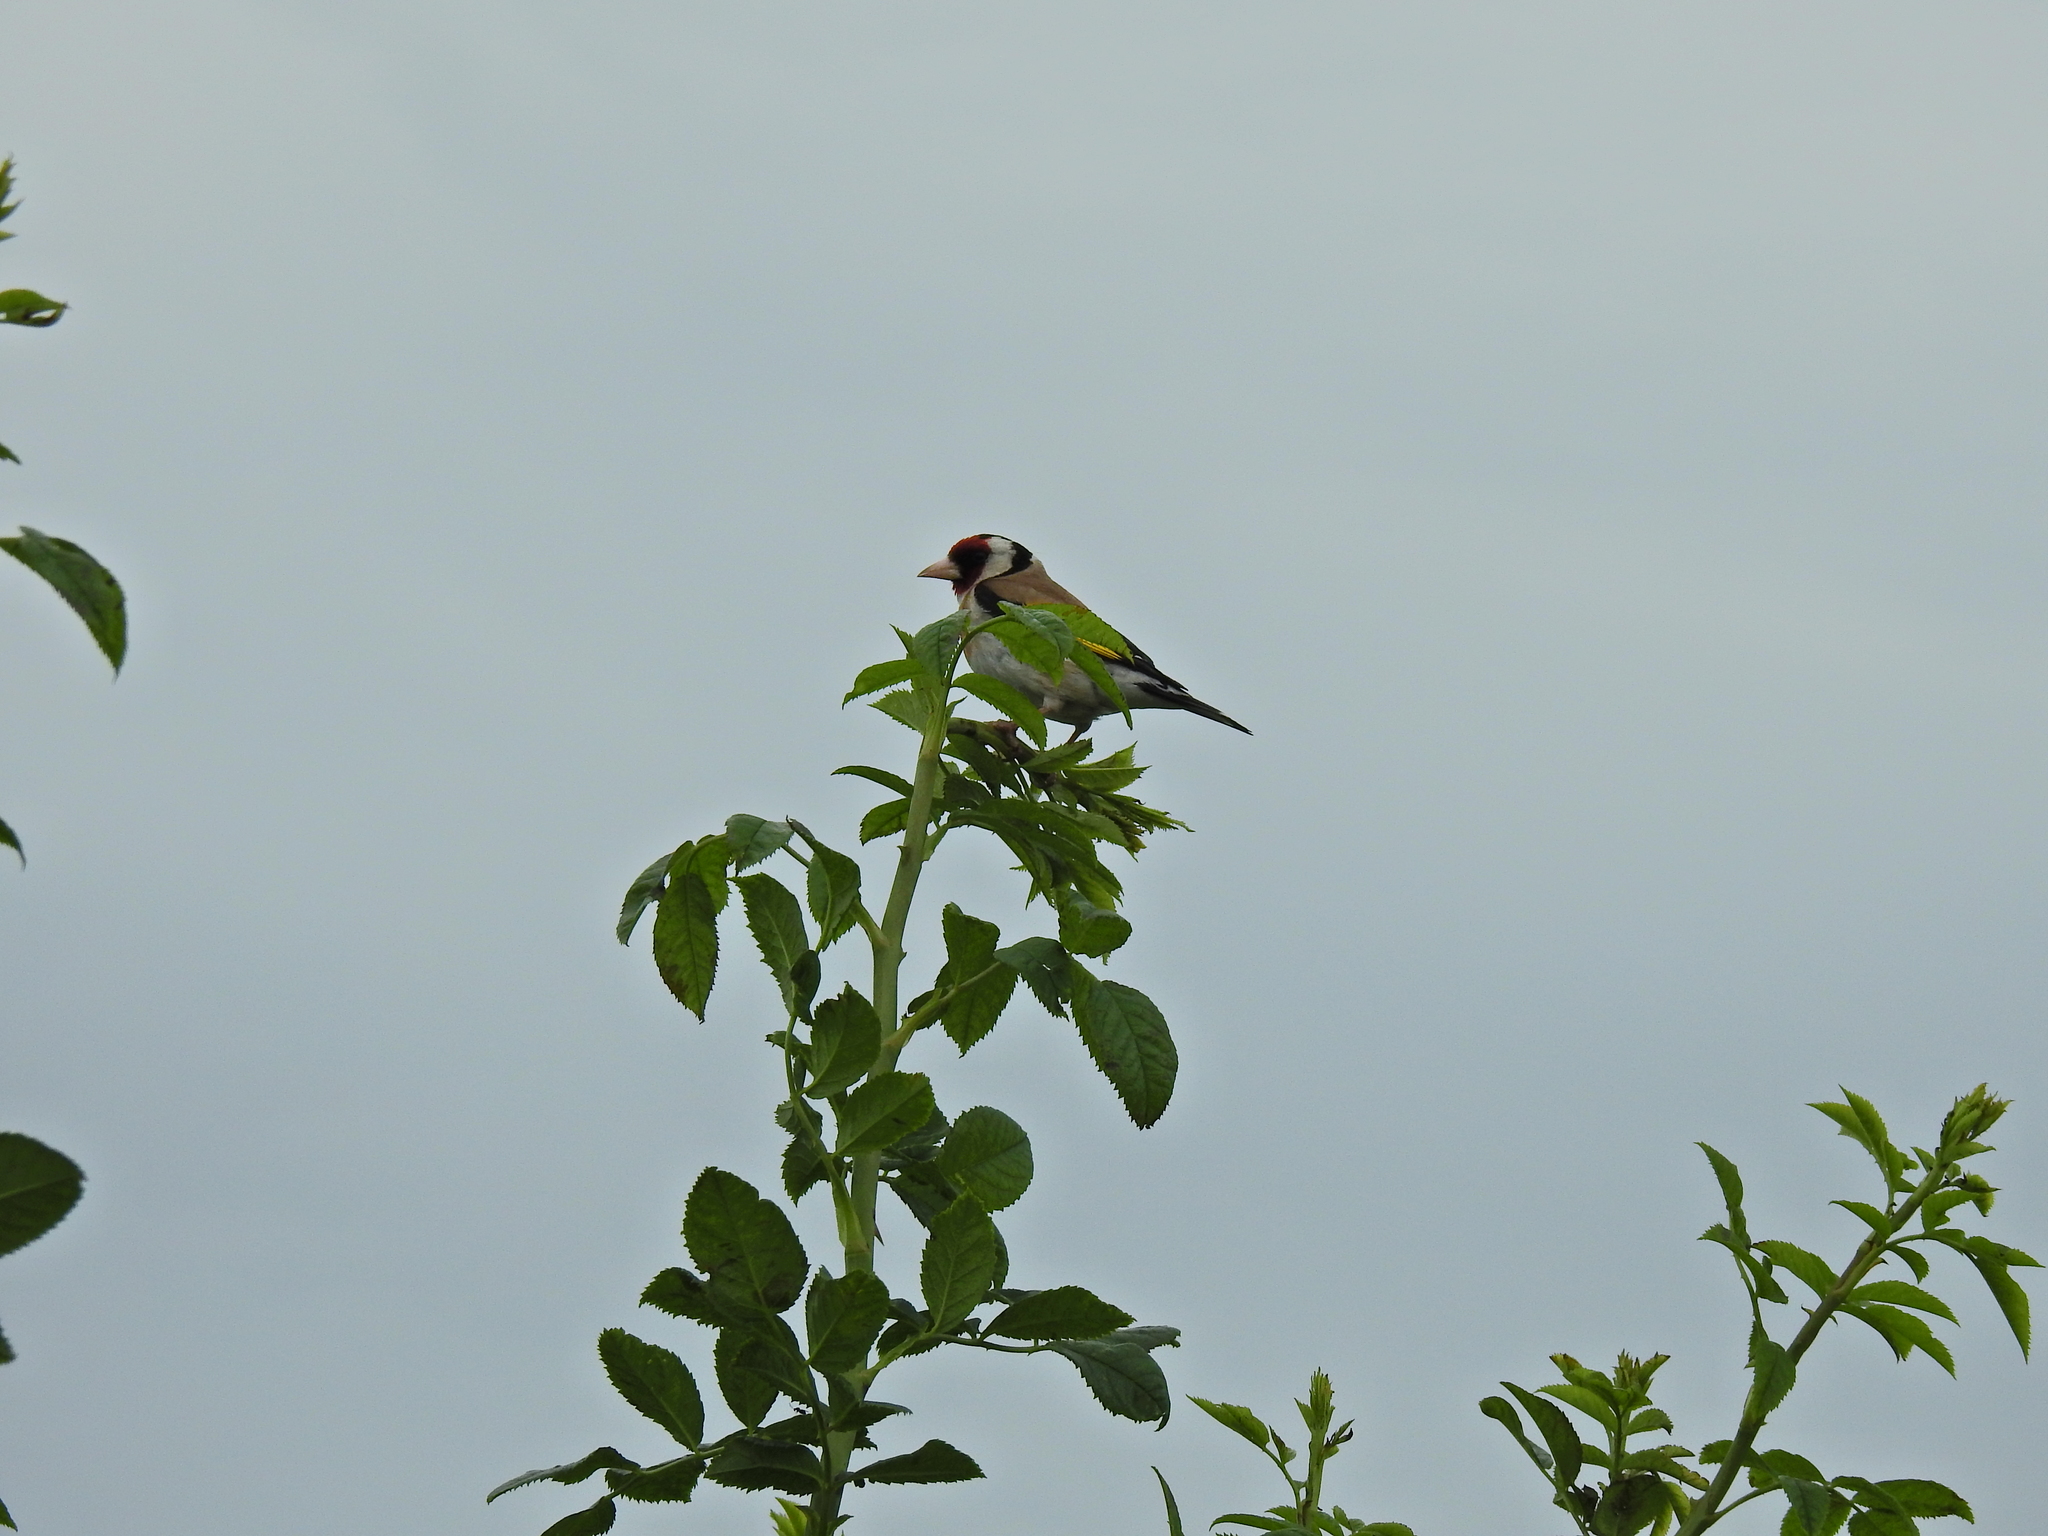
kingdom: Animalia
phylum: Chordata
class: Aves
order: Passeriformes
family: Fringillidae
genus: Carduelis
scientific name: Carduelis carduelis
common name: European goldfinch
